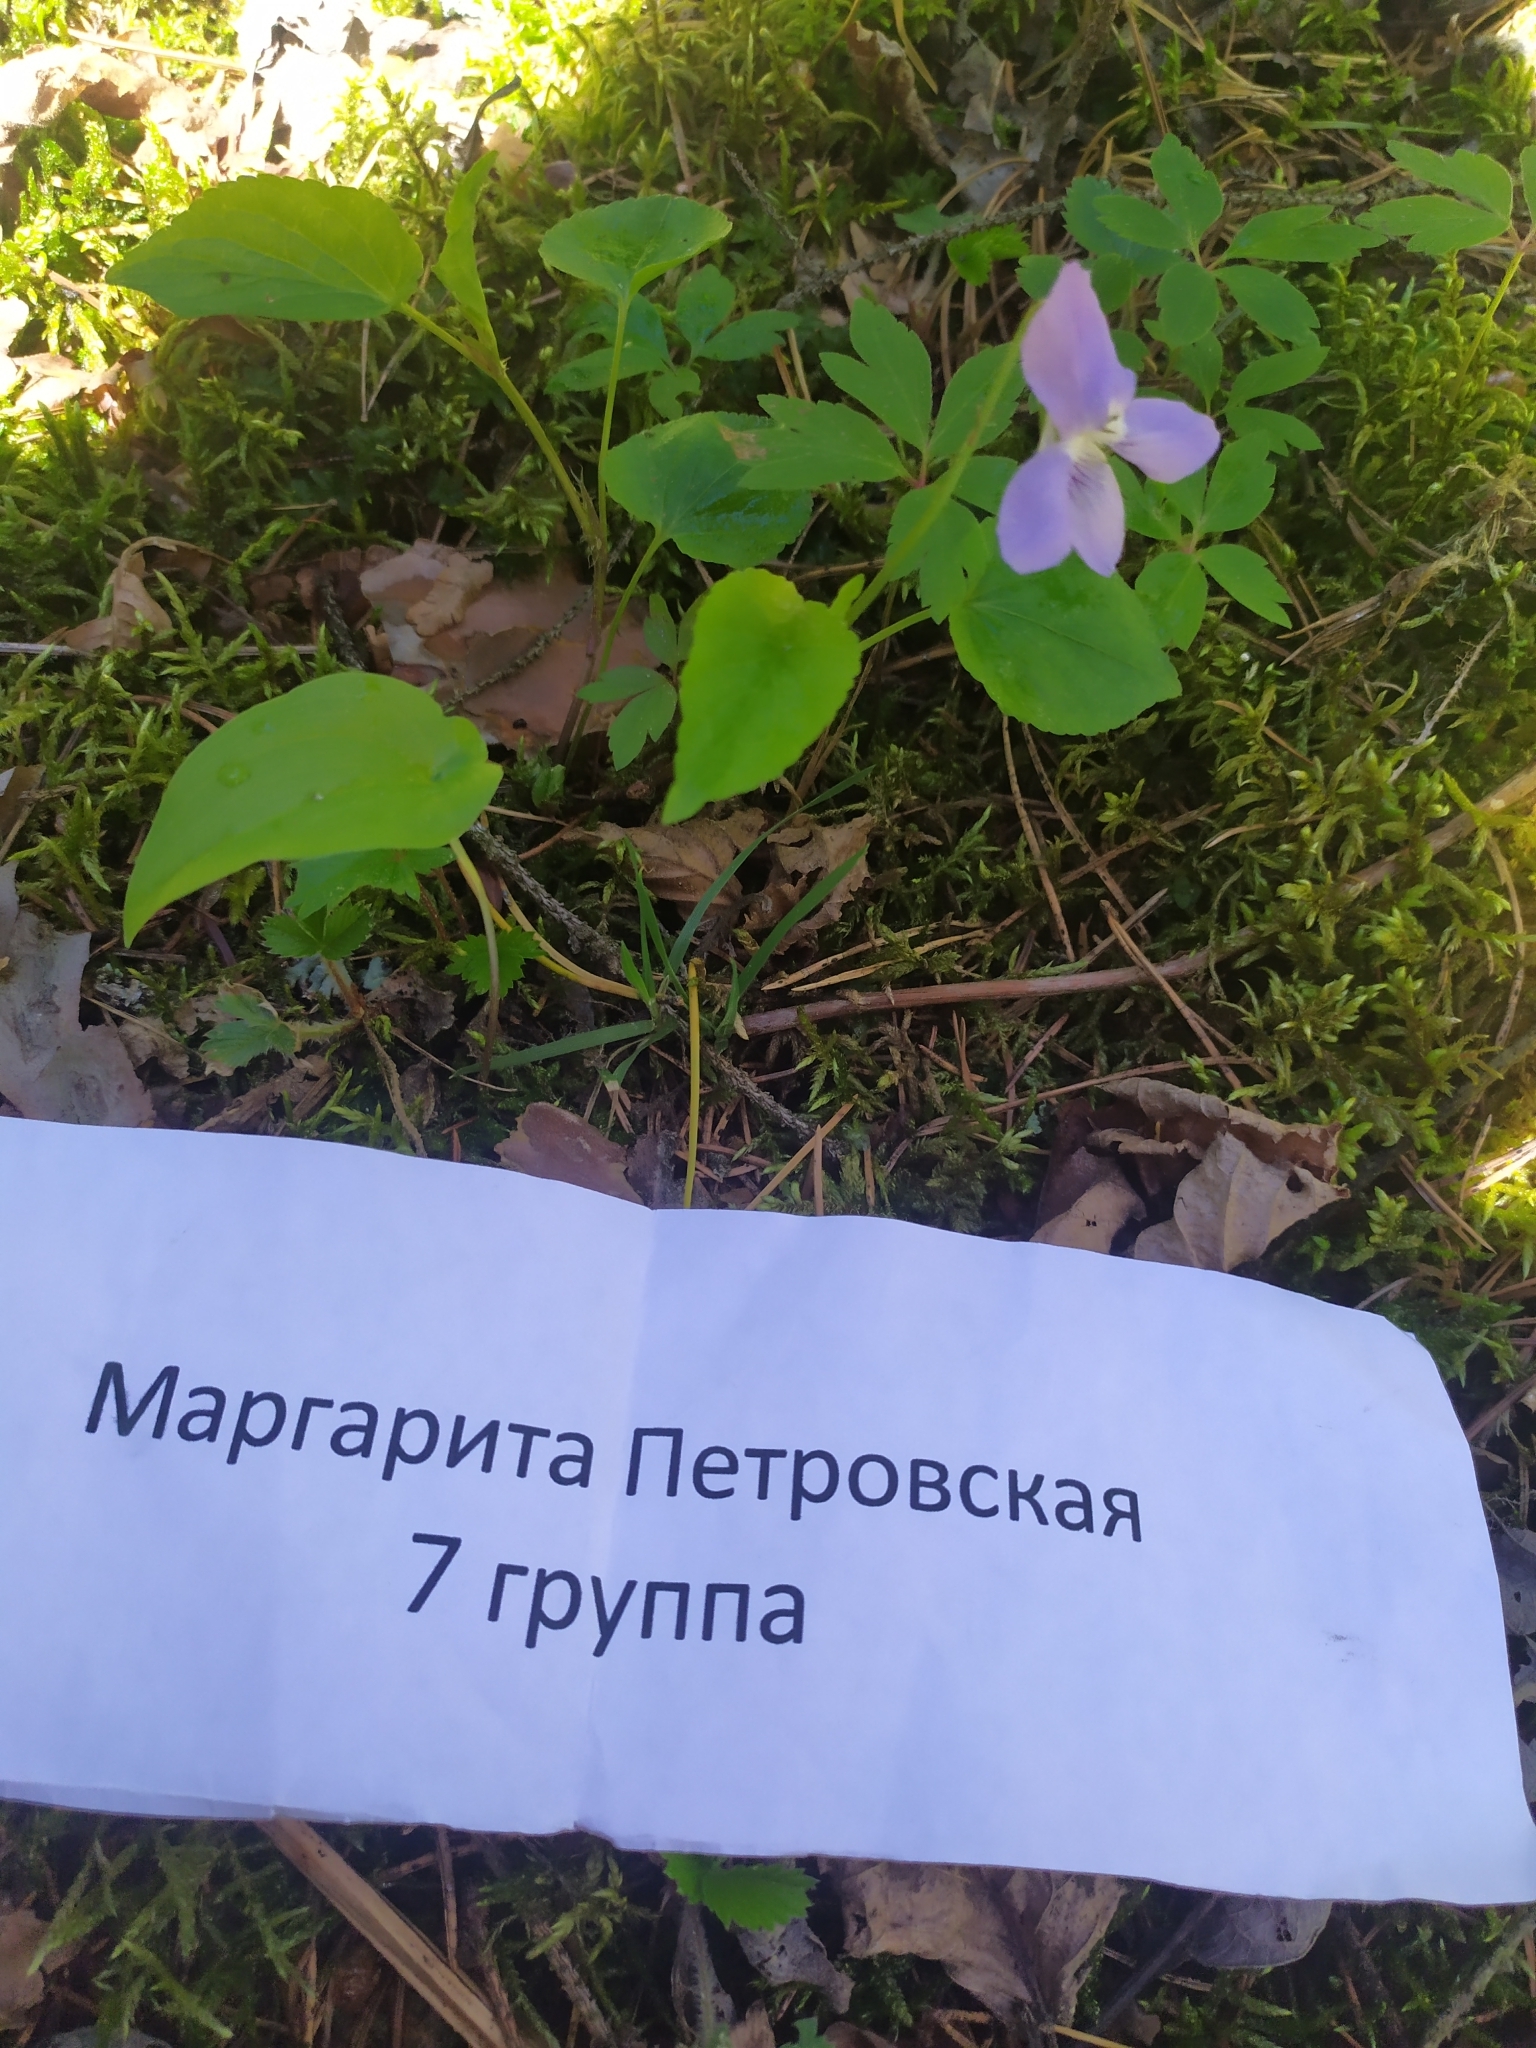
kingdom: Plantae
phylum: Tracheophyta
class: Magnoliopsida
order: Malpighiales
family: Violaceae
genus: Viola
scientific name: Viola riviniana
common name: Common dog-violet
